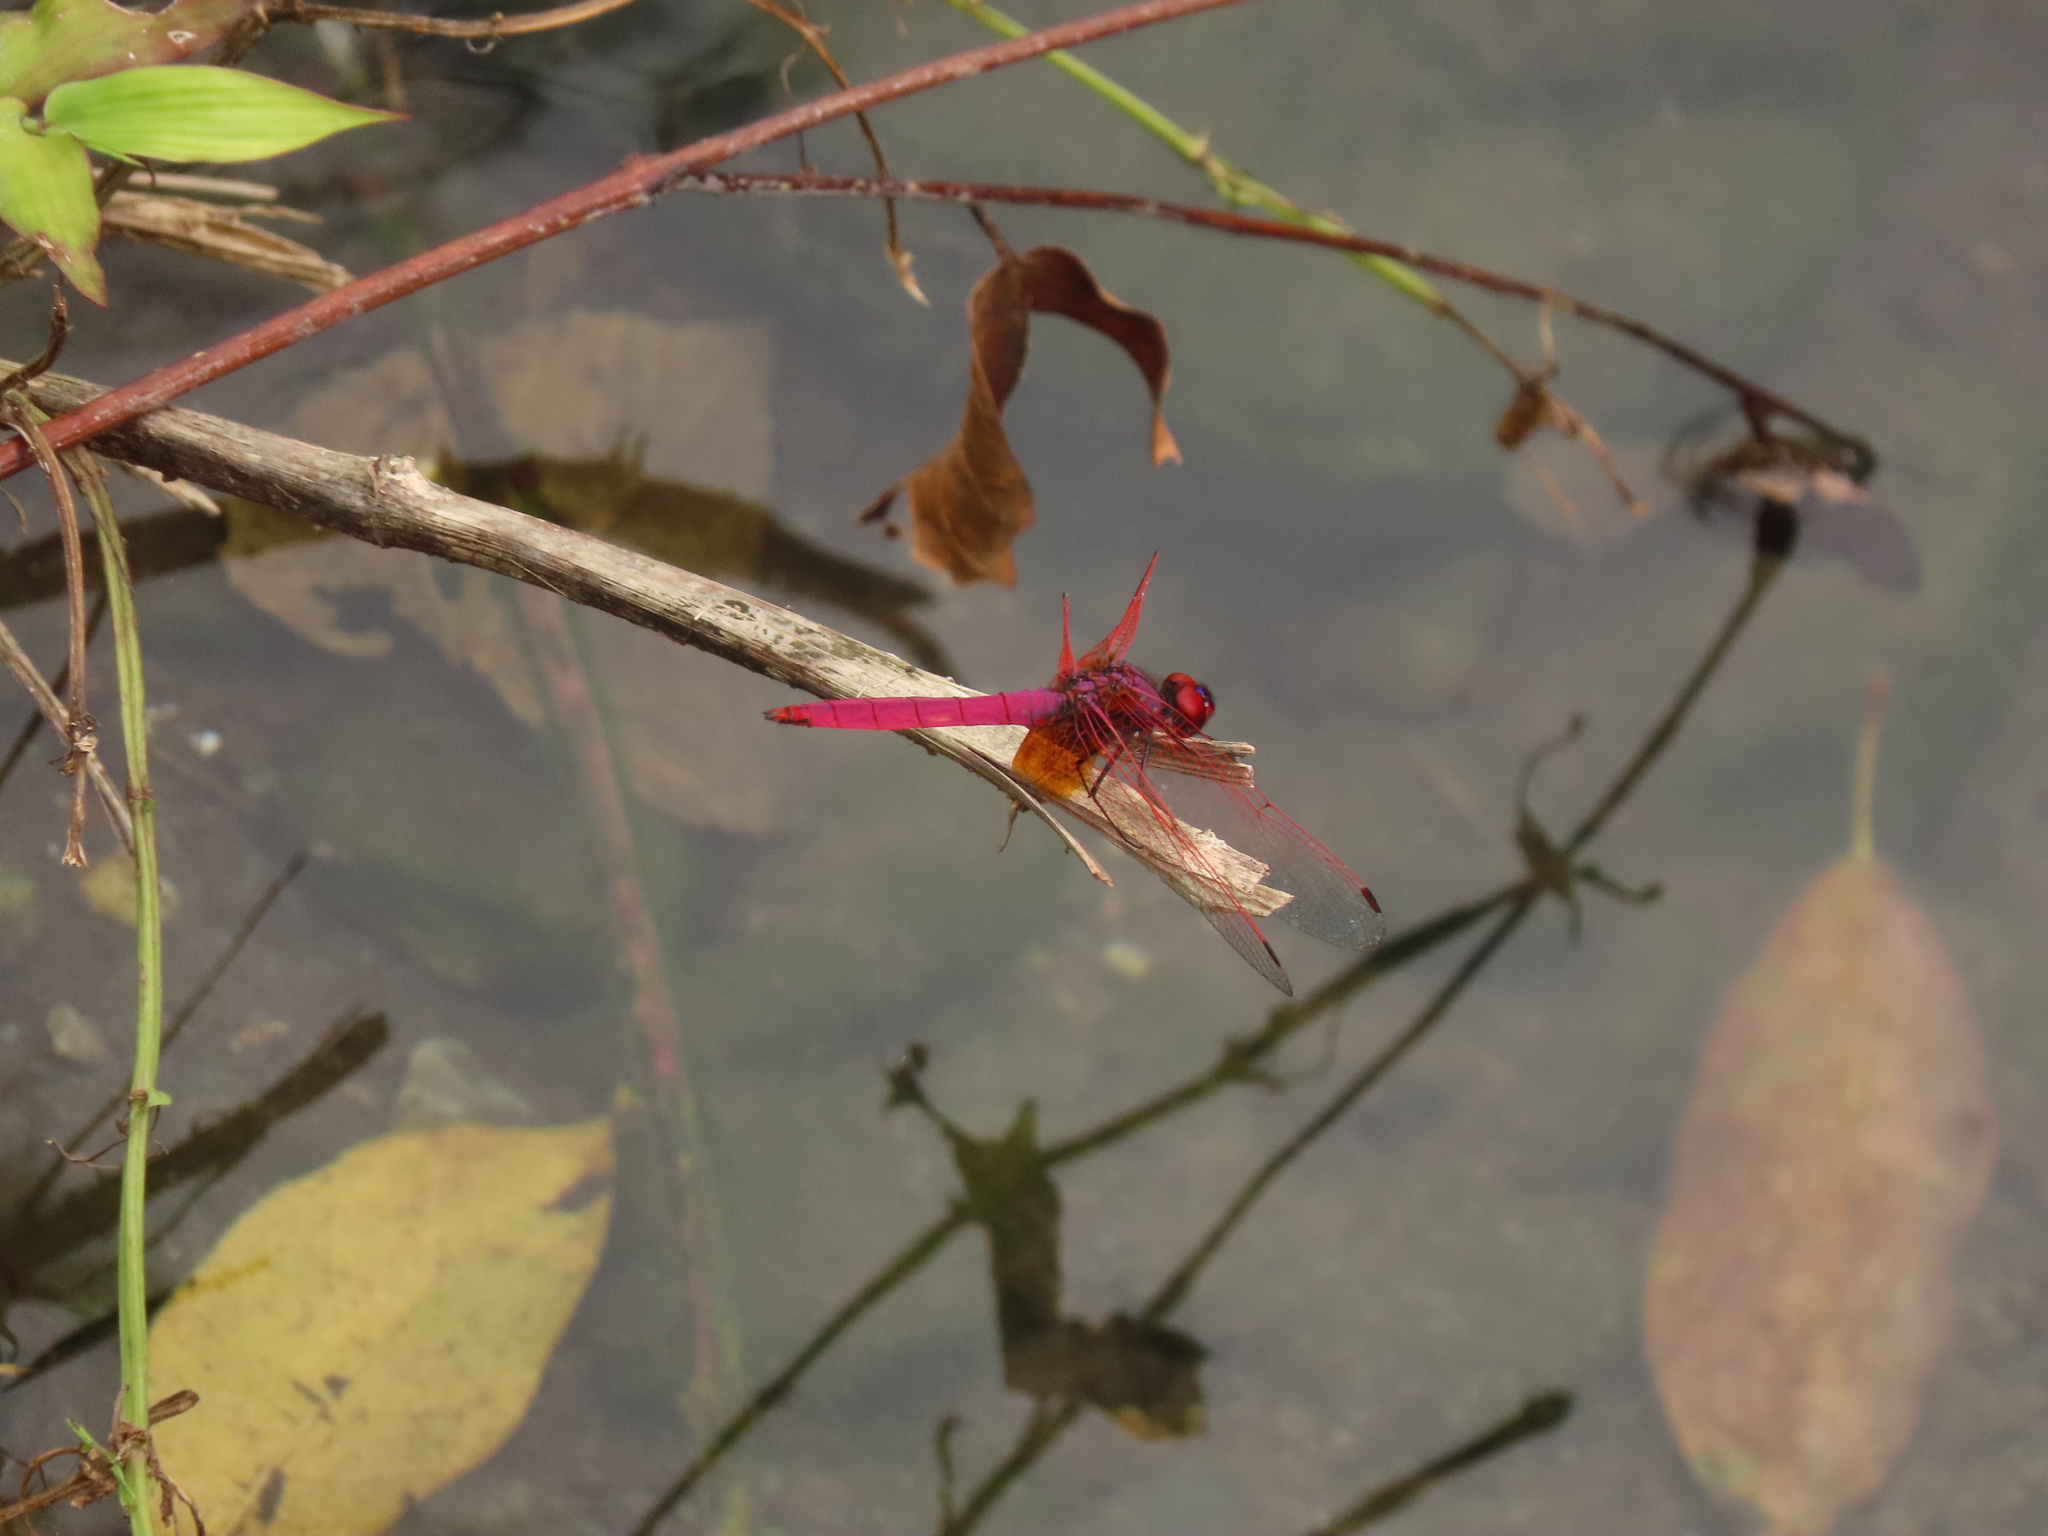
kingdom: Animalia
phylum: Arthropoda
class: Insecta
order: Odonata
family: Libellulidae
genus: Trithemis
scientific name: Trithemis aurora
